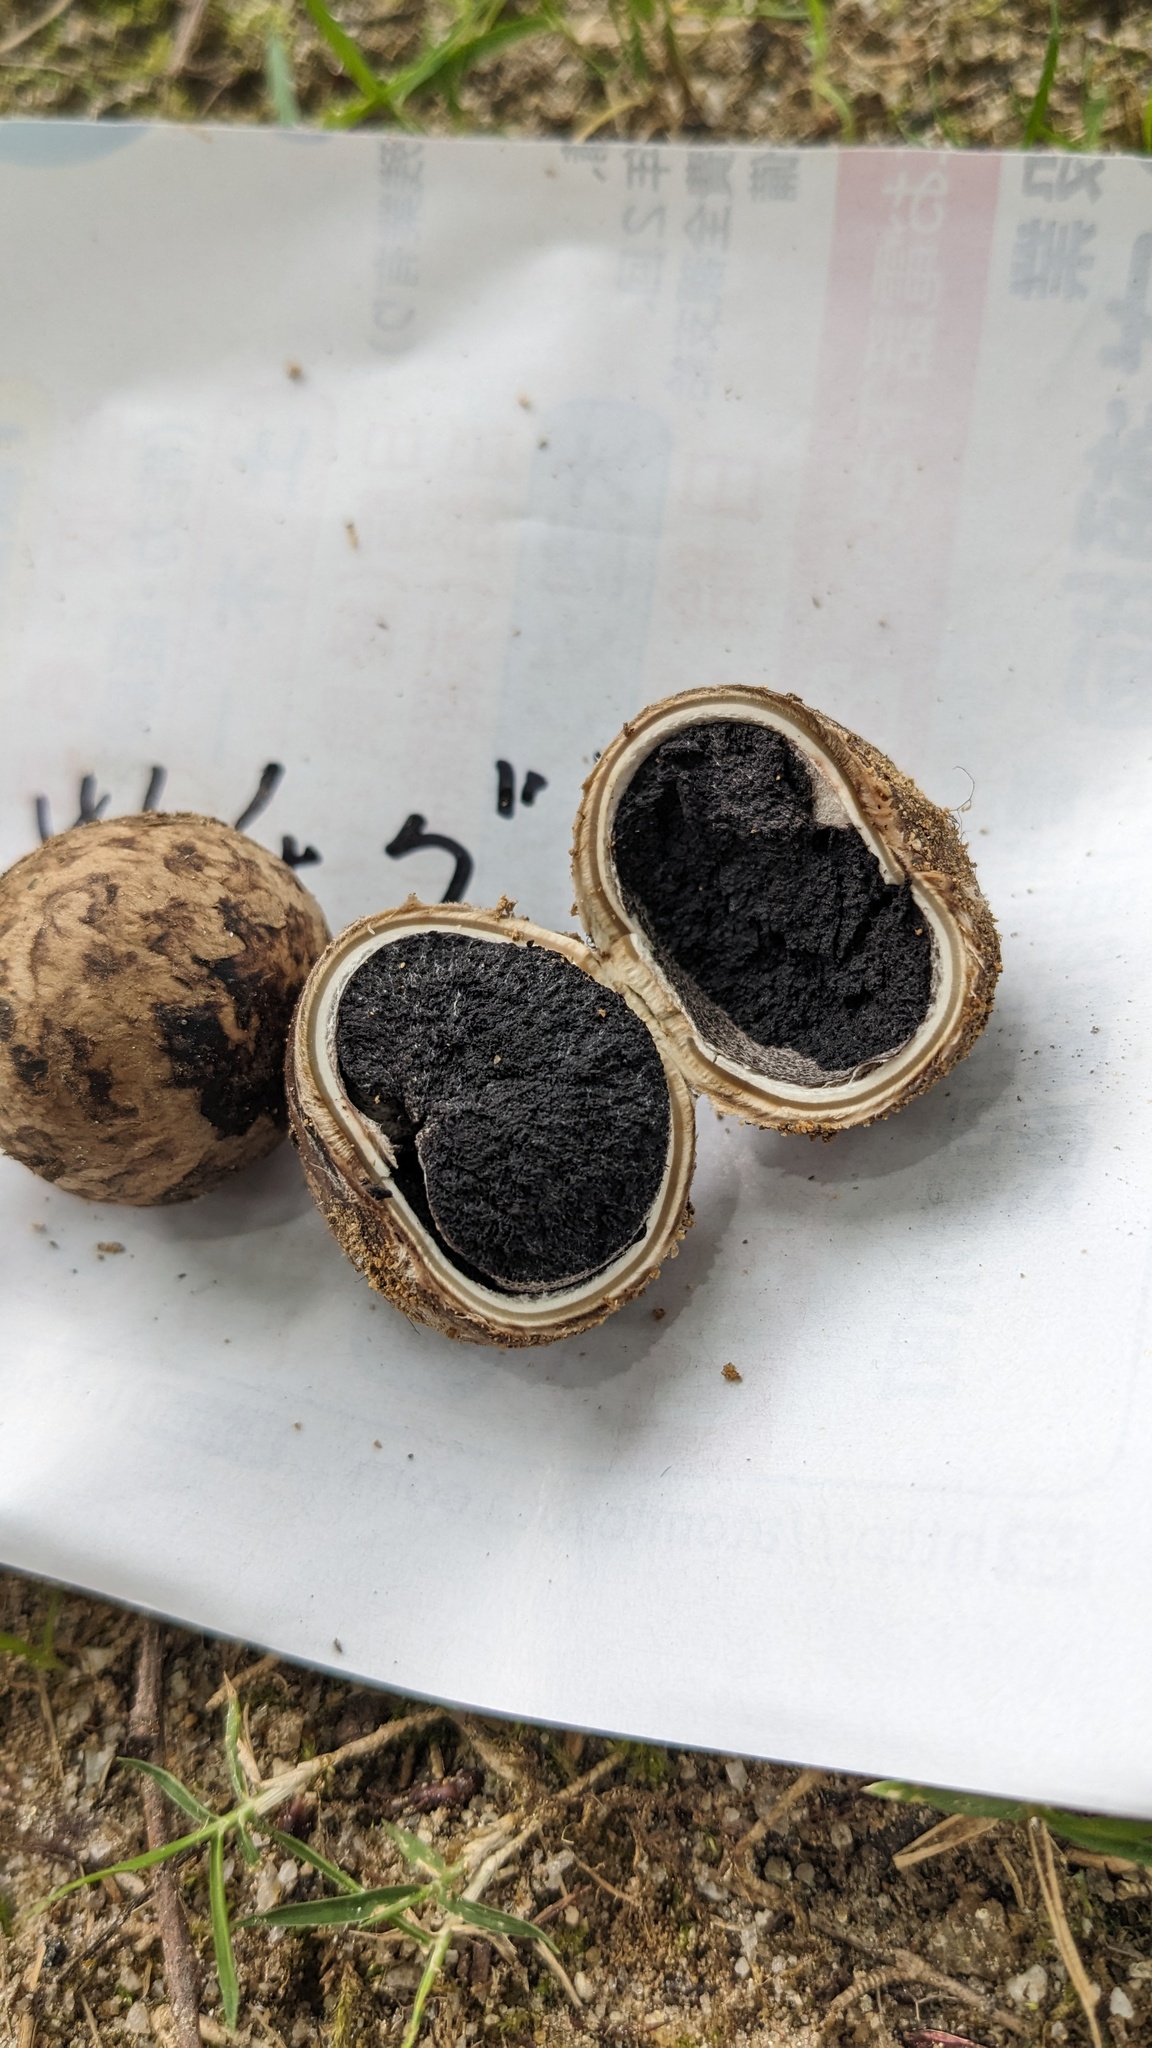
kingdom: Fungi
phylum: Basidiomycota
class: Agaricomycetes
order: Boletales
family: Diplocystidiaceae
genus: Astraeus
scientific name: Astraeus hygrometricus
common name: Barometer earthstar
